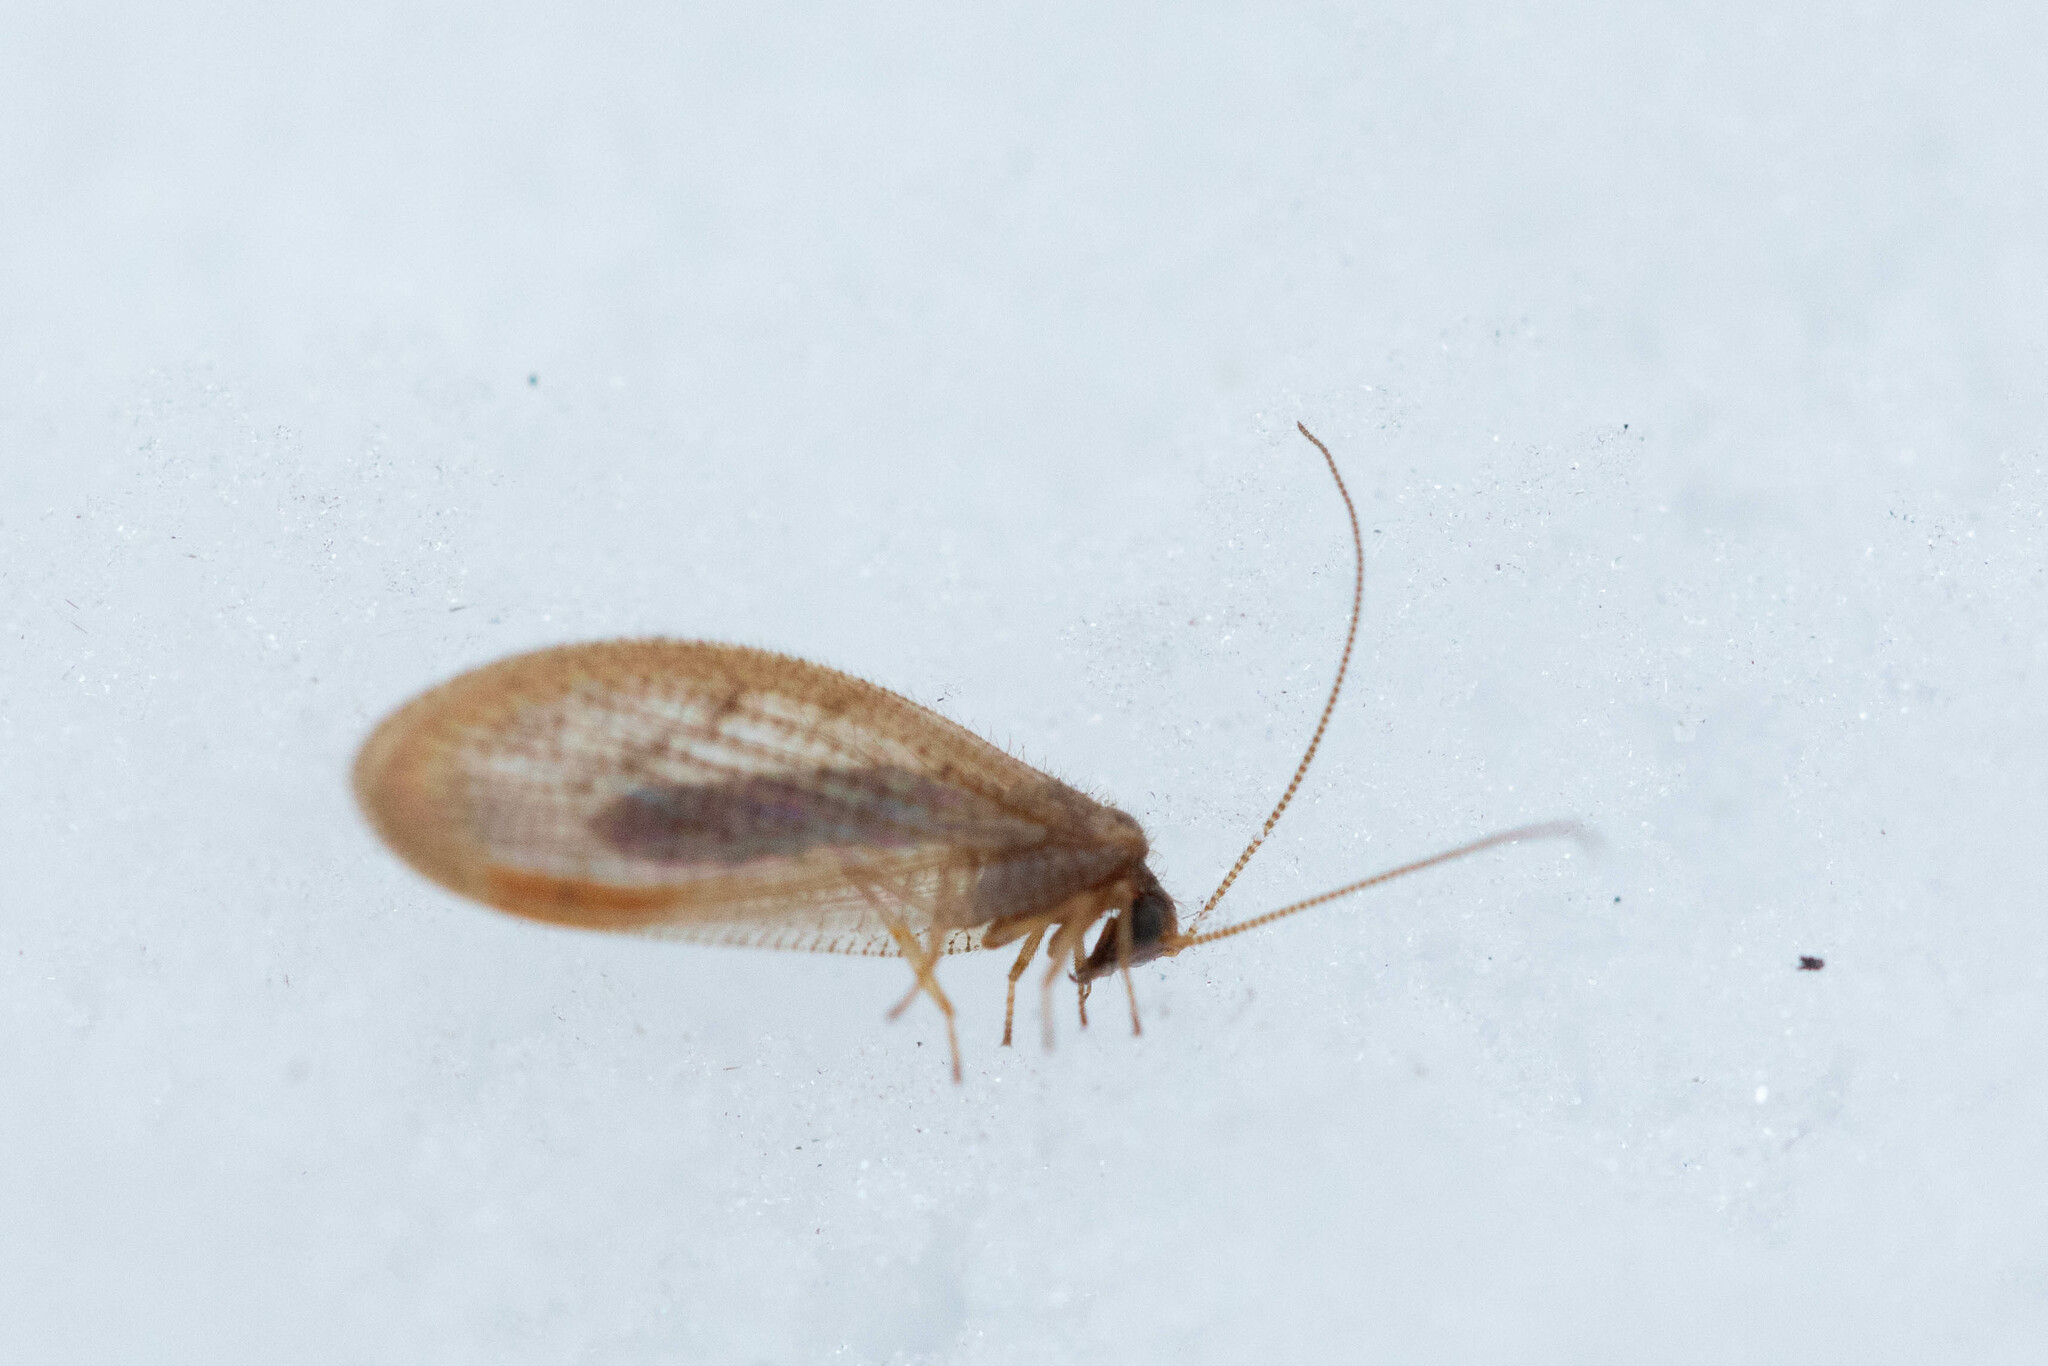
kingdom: Animalia
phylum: Arthropoda
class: Insecta
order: Neuroptera
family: Hemerobiidae
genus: Hemerobius
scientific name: Hemerobius stigma
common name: Brown pine lacewing
